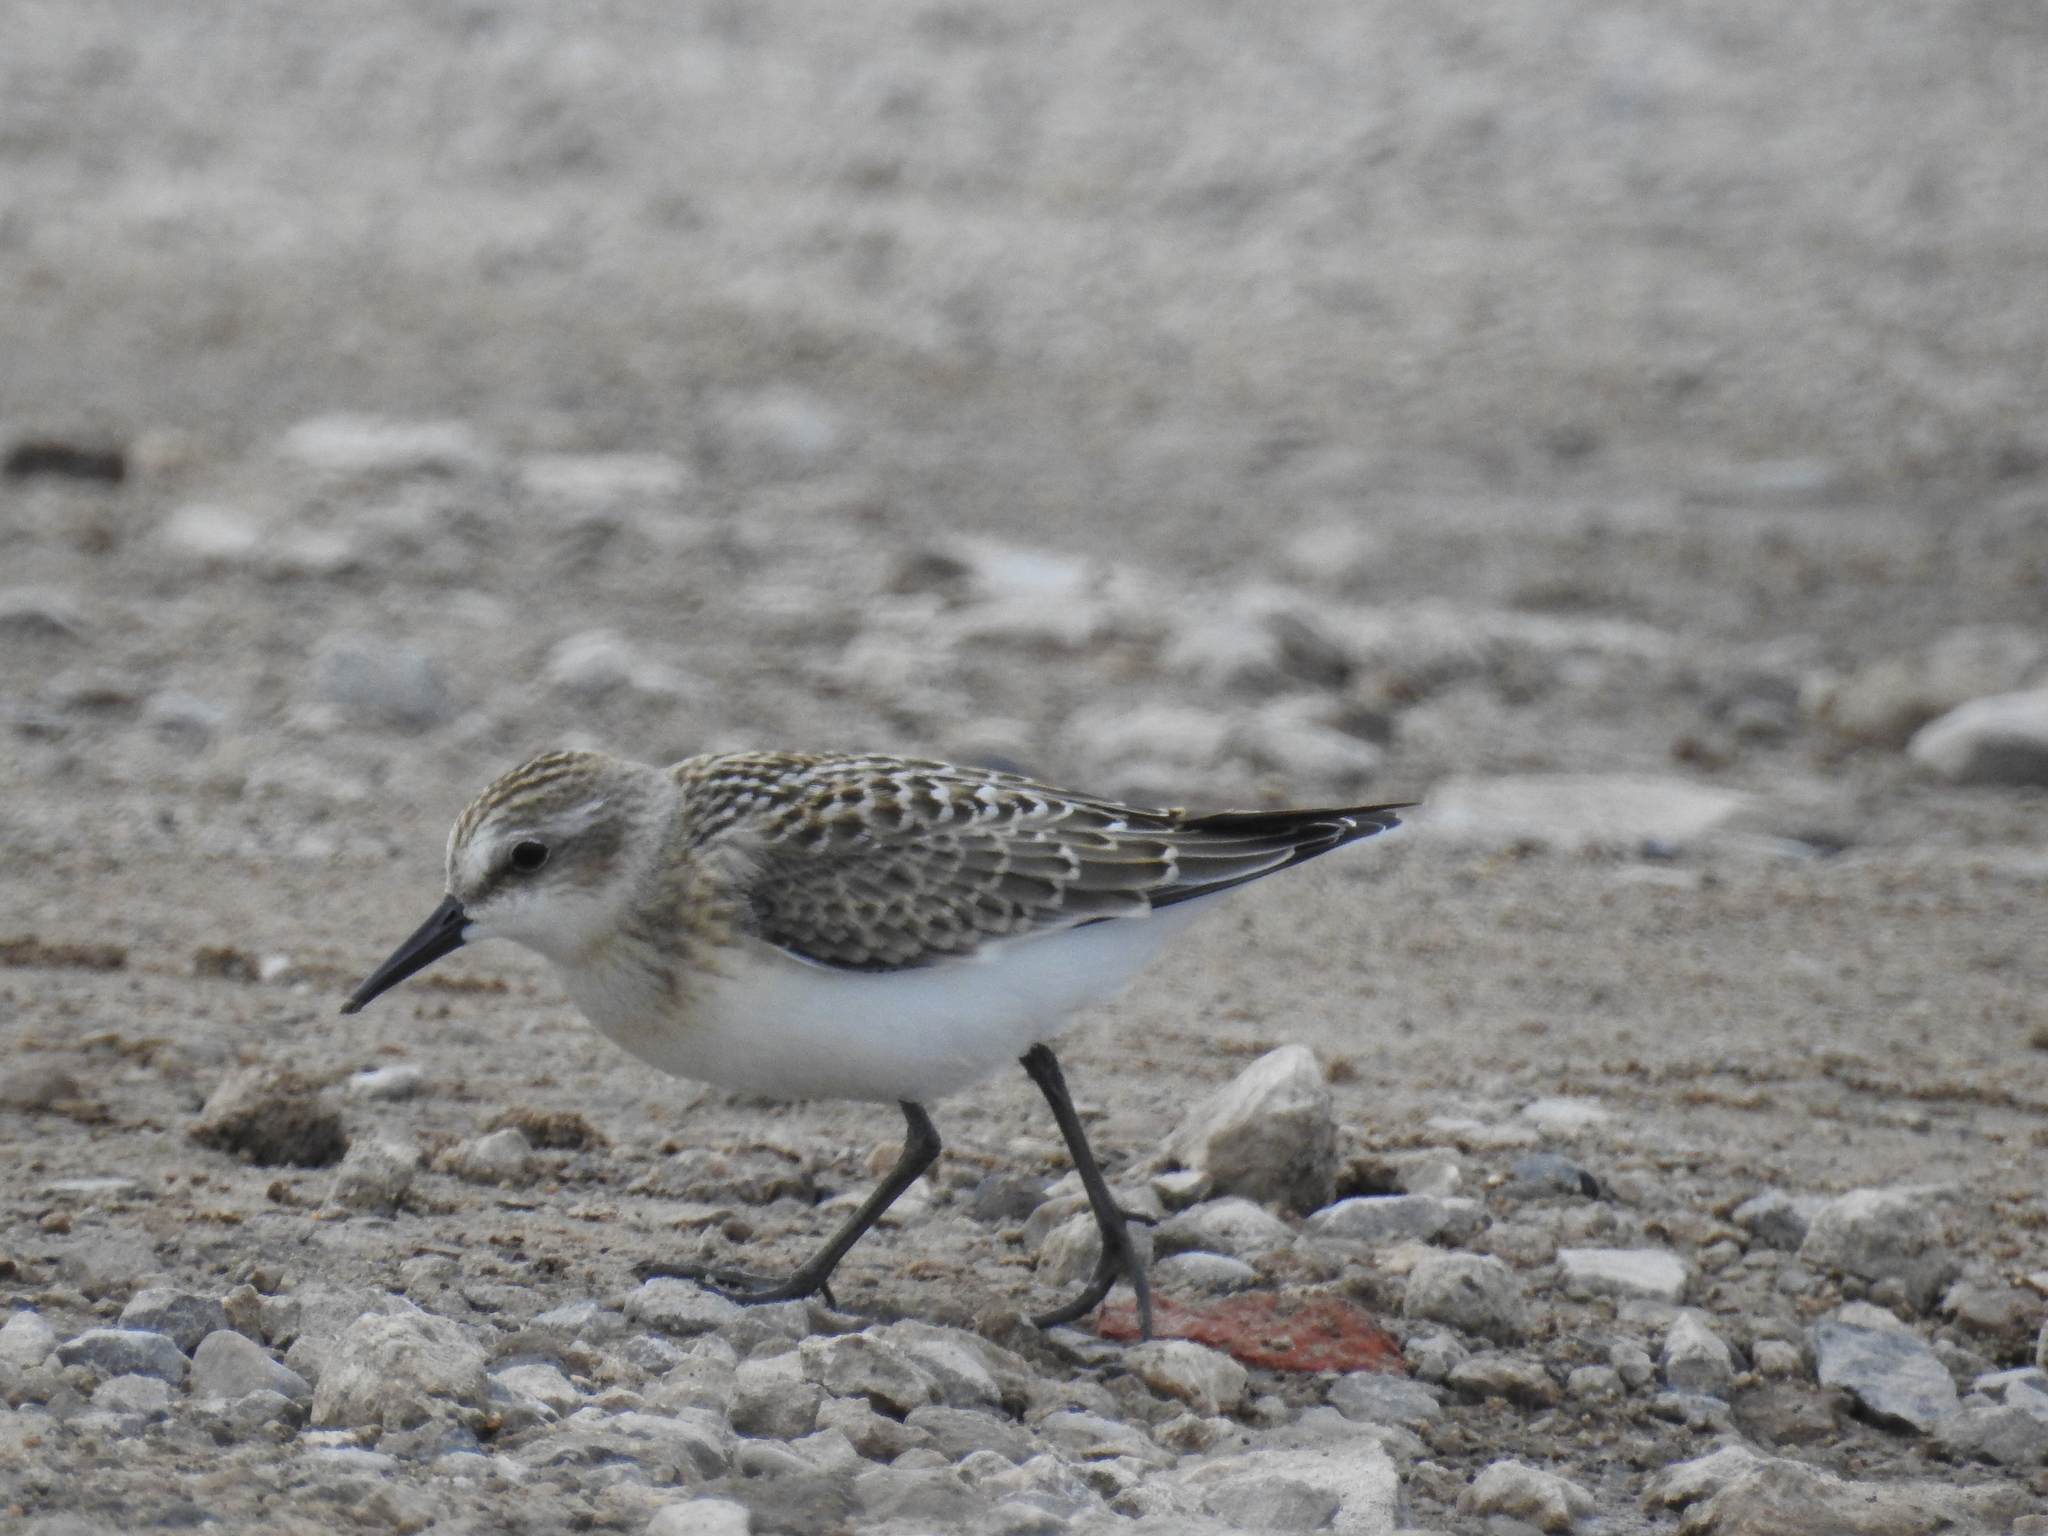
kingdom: Animalia
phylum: Chordata
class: Aves
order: Charadriiformes
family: Scolopacidae
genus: Calidris
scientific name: Calidris pusilla
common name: Semipalmated sandpiper
